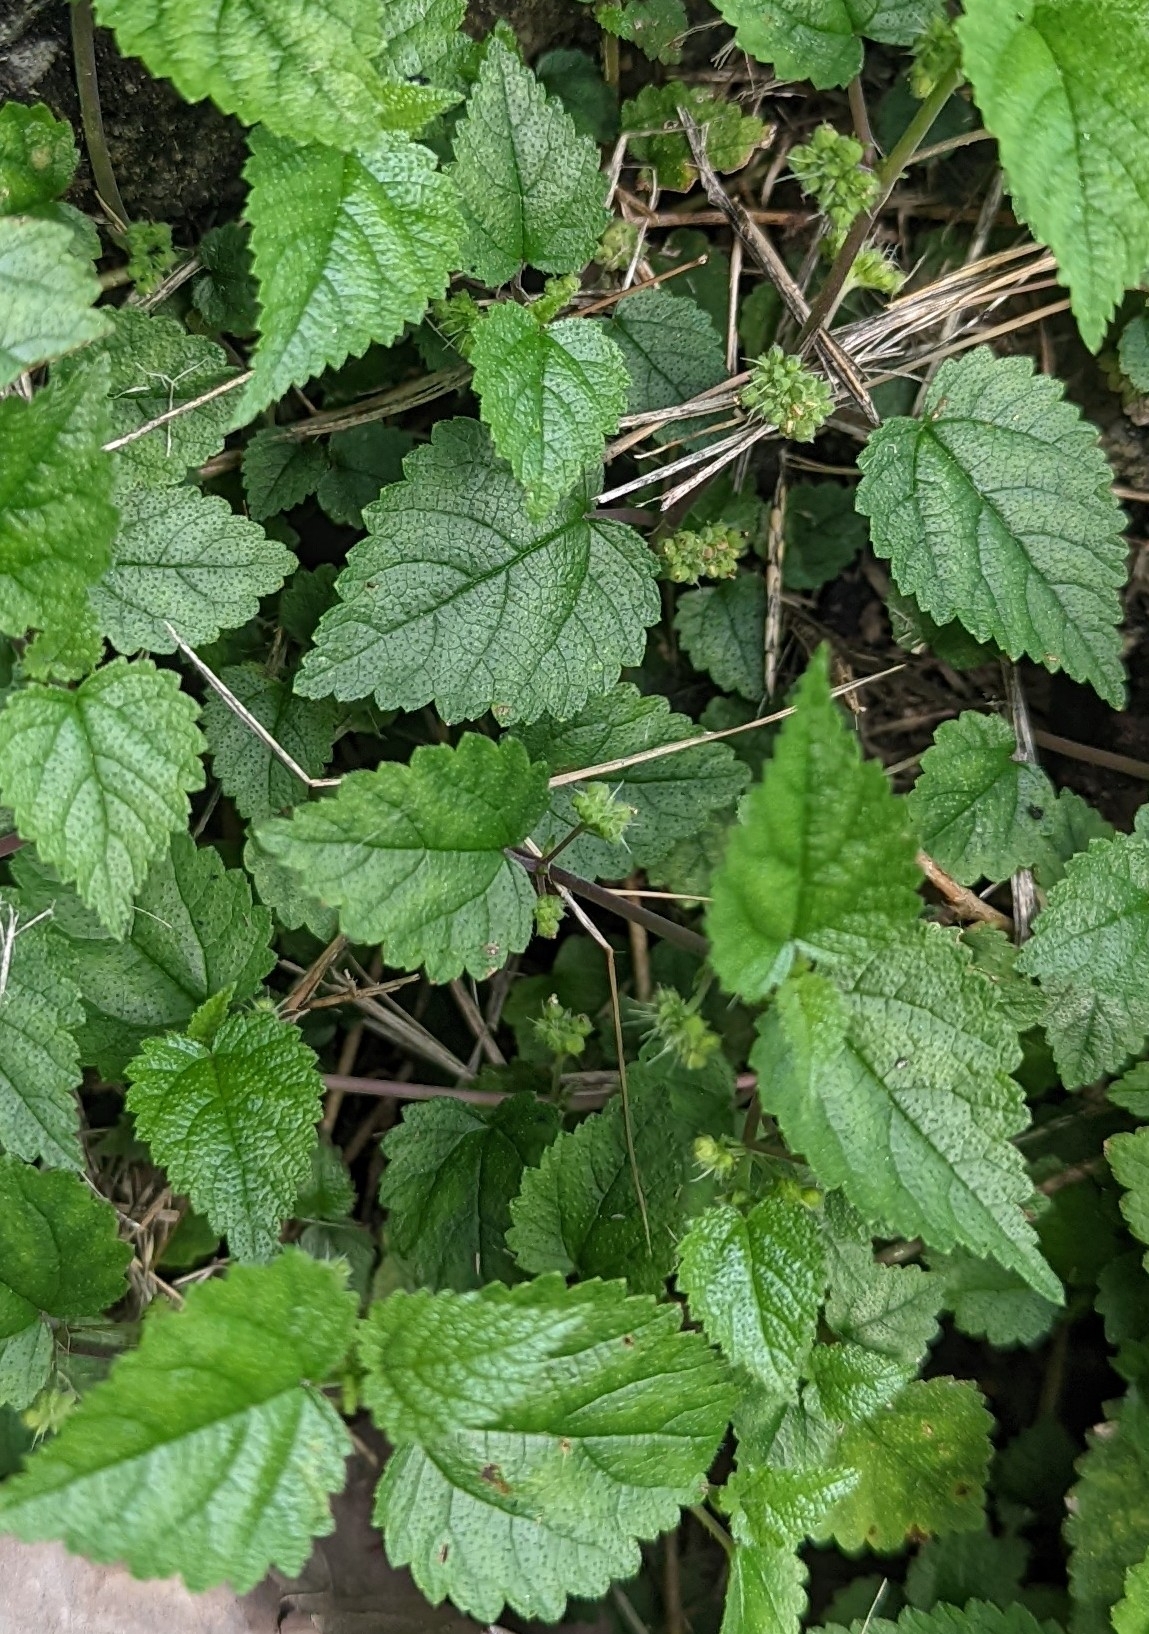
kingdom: Plantae
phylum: Tracheophyta
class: Magnoliopsida
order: Rosales
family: Moraceae
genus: Fatoua
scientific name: Fatoua villosa
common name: Hairy crabweed
